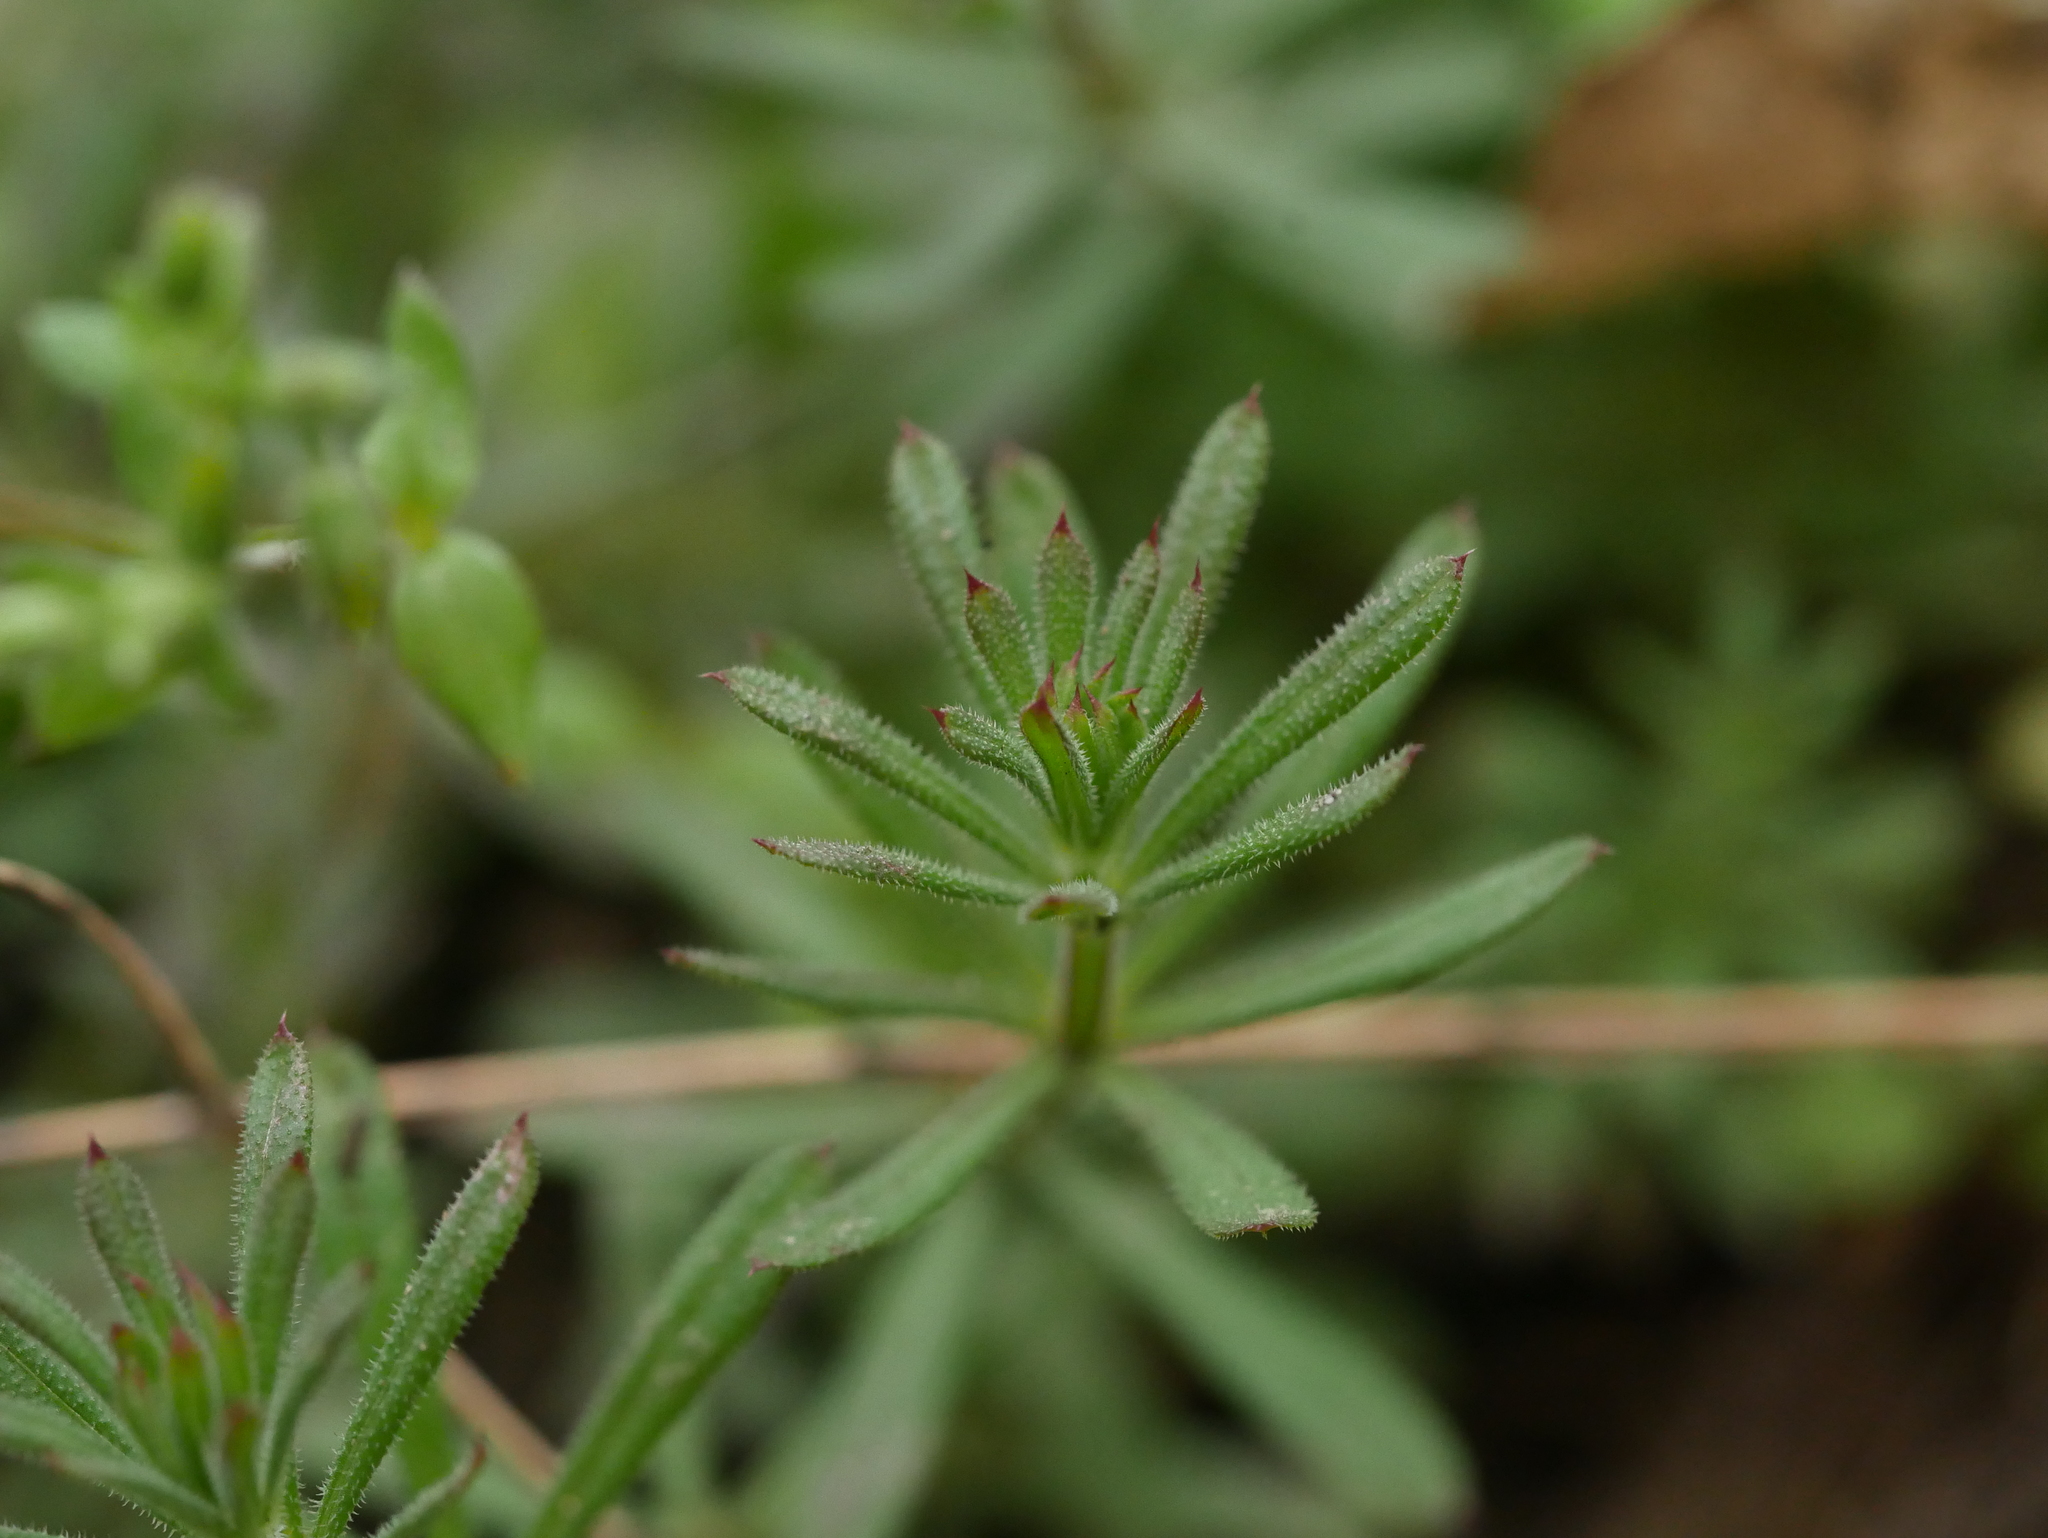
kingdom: Plantae
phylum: Tracheophyta
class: Magnoliopsida
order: Gentianales
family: Rubiaceae
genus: Galium
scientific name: Galium aparine
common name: Cleavers
